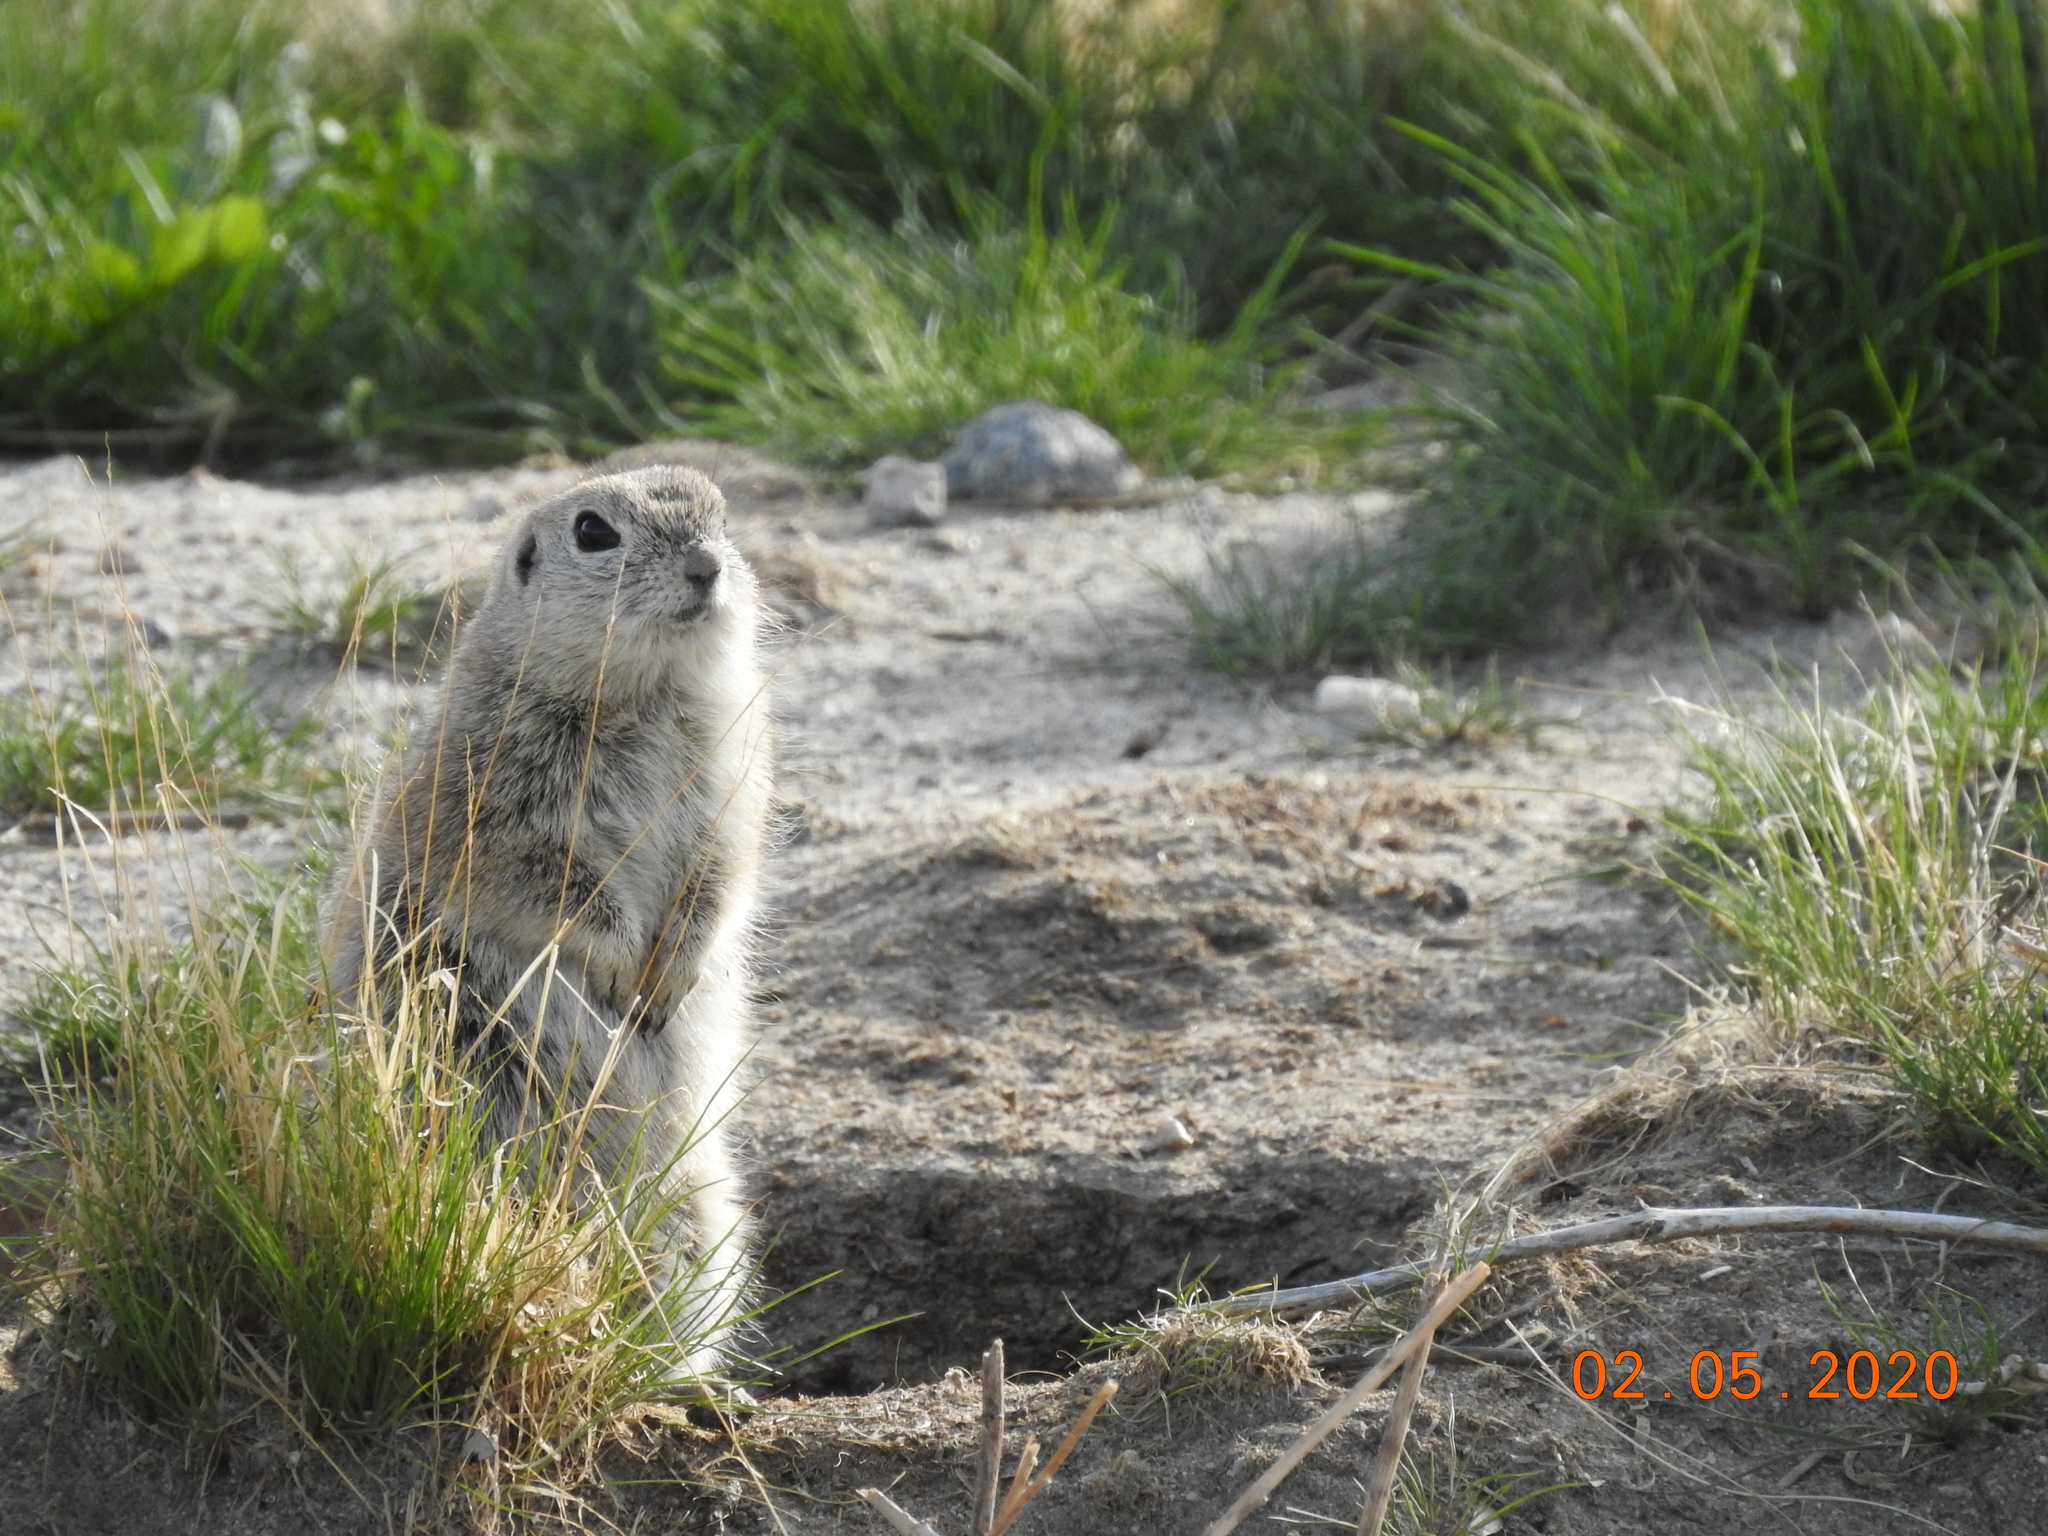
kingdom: Animalia
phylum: Chordata
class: Mammalia
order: Rodentia
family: Sciuridae
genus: Xerospermophilus
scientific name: Xerospermophilus tereticaudus
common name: Round-tailed ground squirrel
